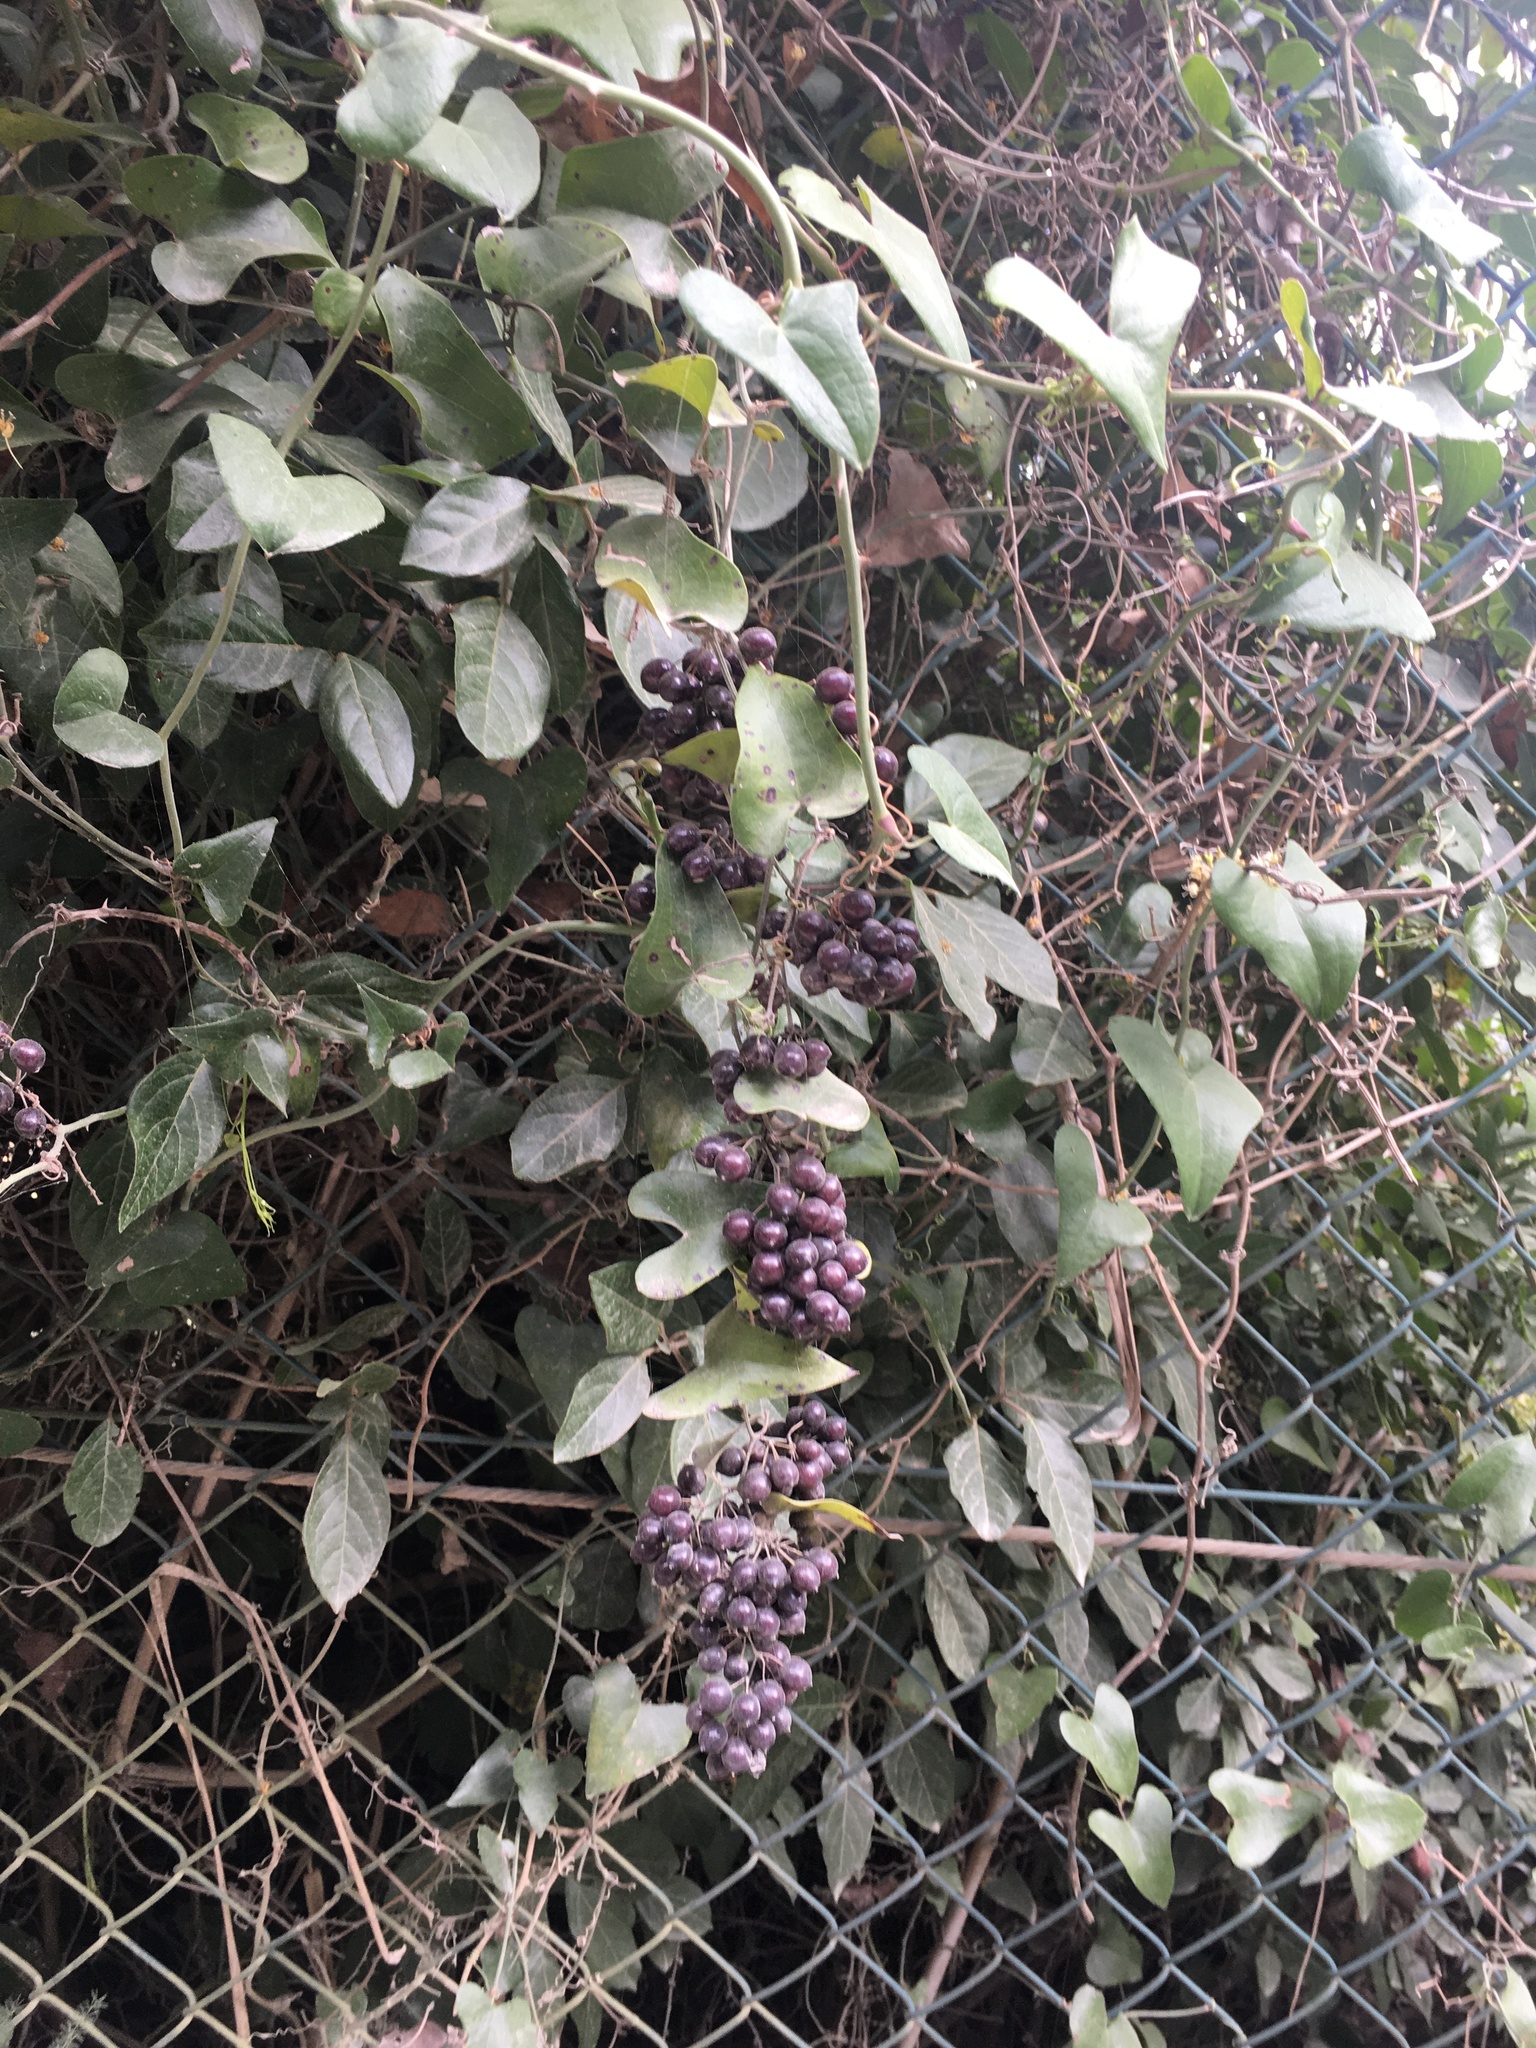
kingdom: Plantae
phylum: Tracheophyta
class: Liliopsida
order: Liliales
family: Smilacaceae
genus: Smilax
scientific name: Smilax aspera
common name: Common smilax
